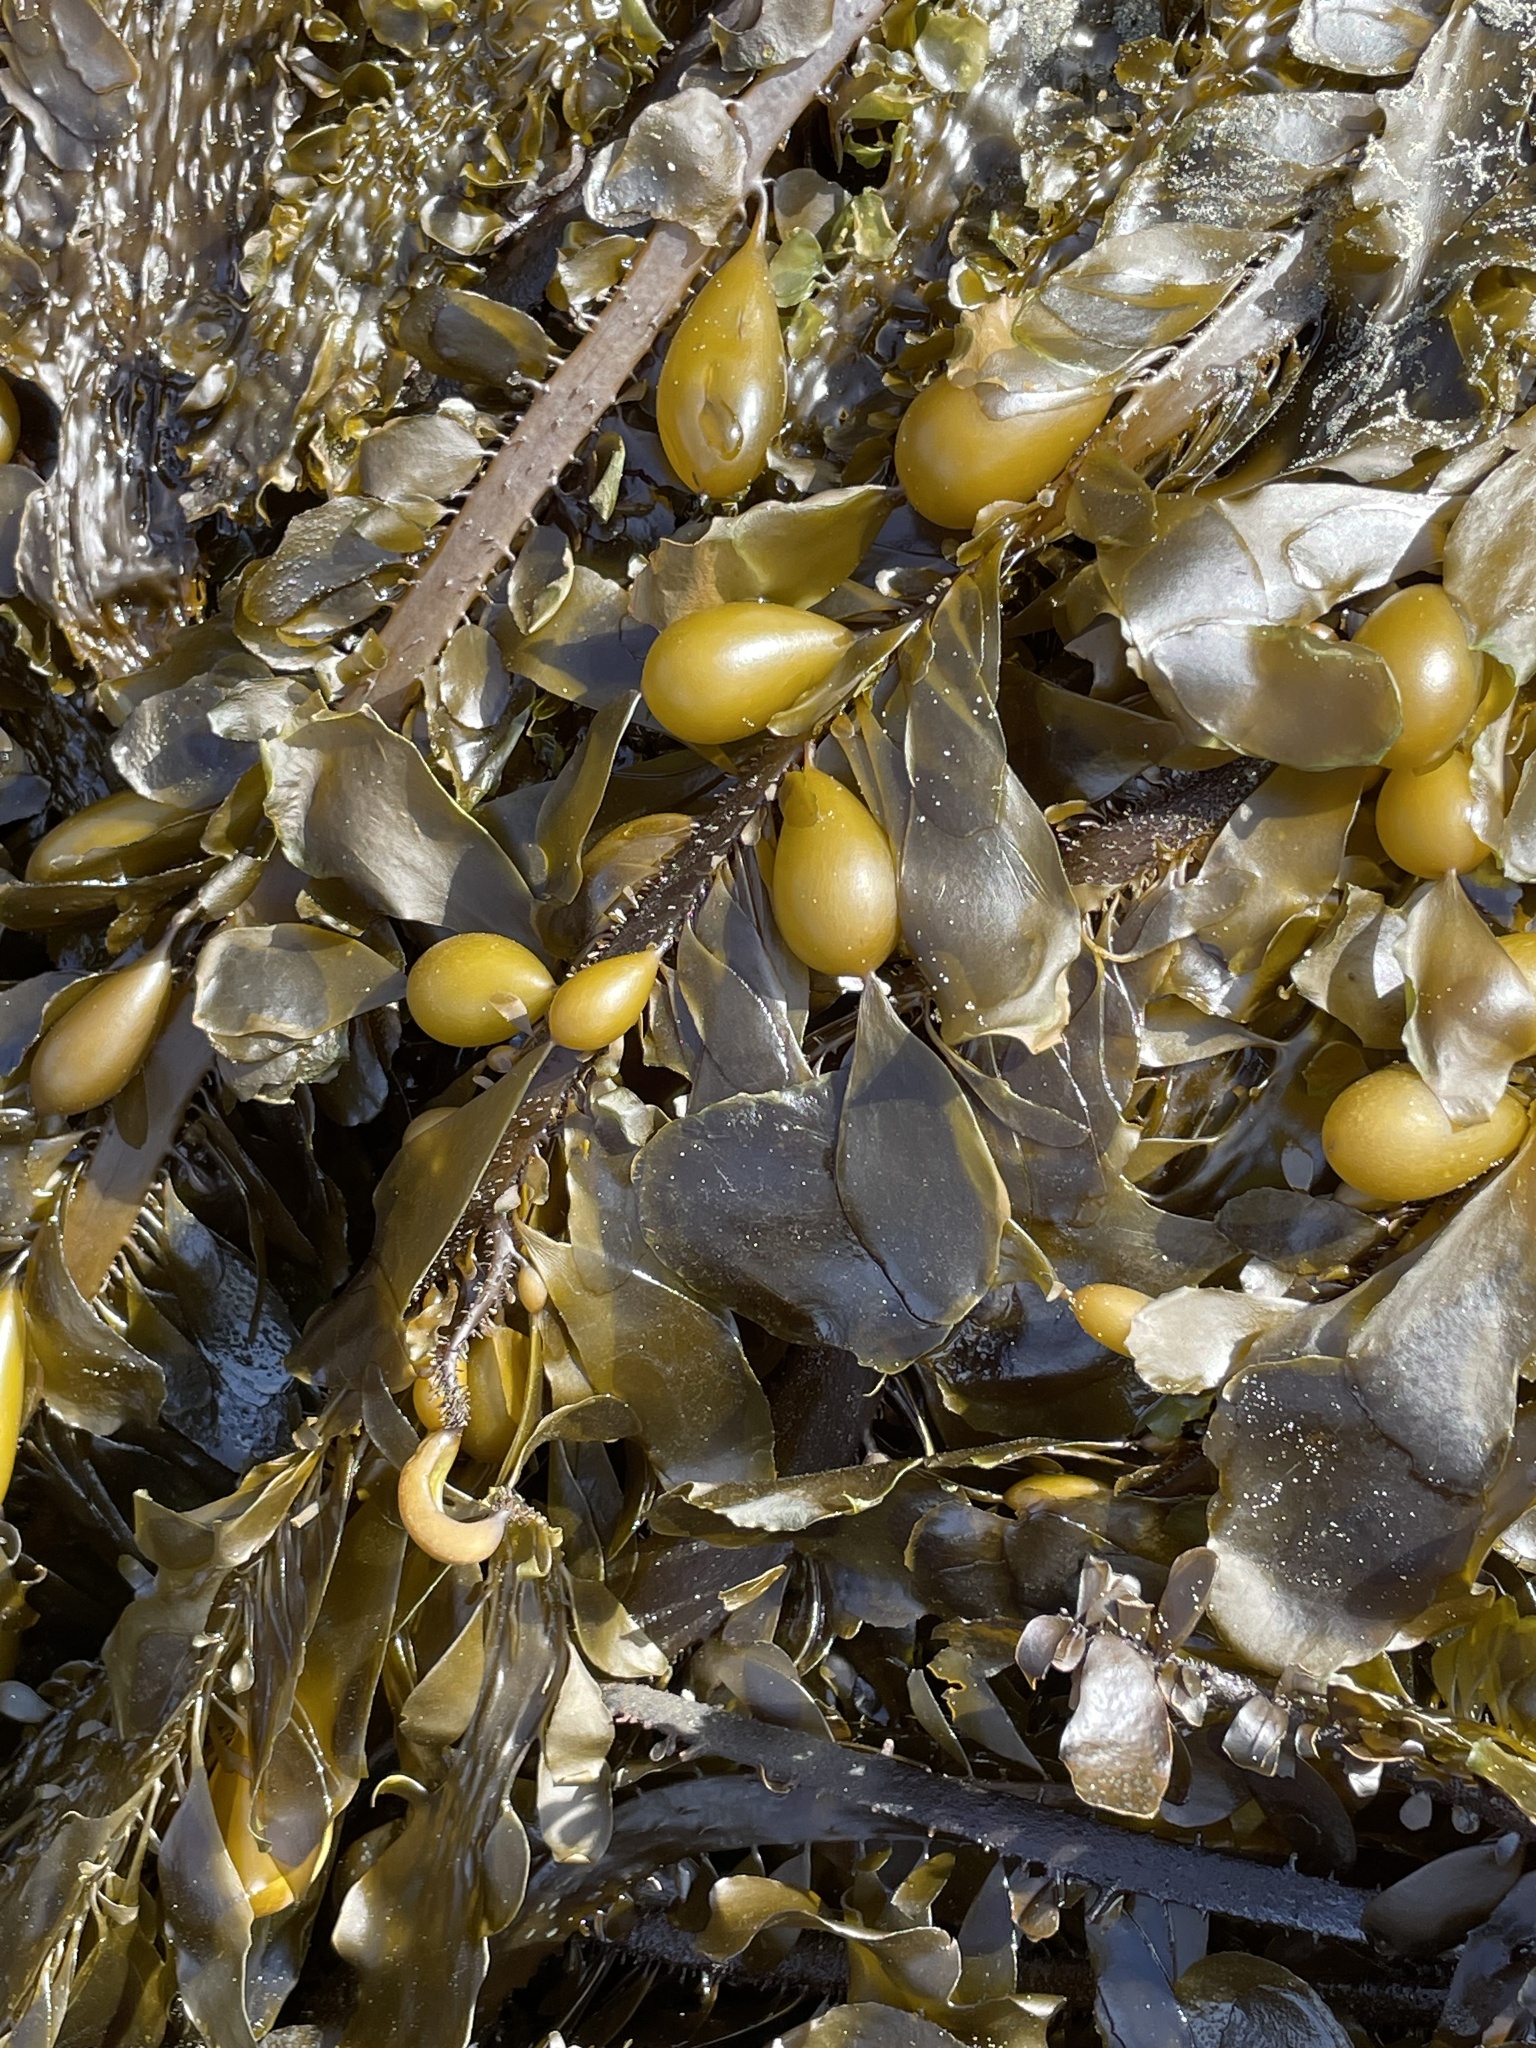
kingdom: Chromista
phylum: Ochrophyta
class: Phaeophyceae
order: Laminariales
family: Lessoniaceae
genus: Egregia
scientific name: Egregia menziesii
